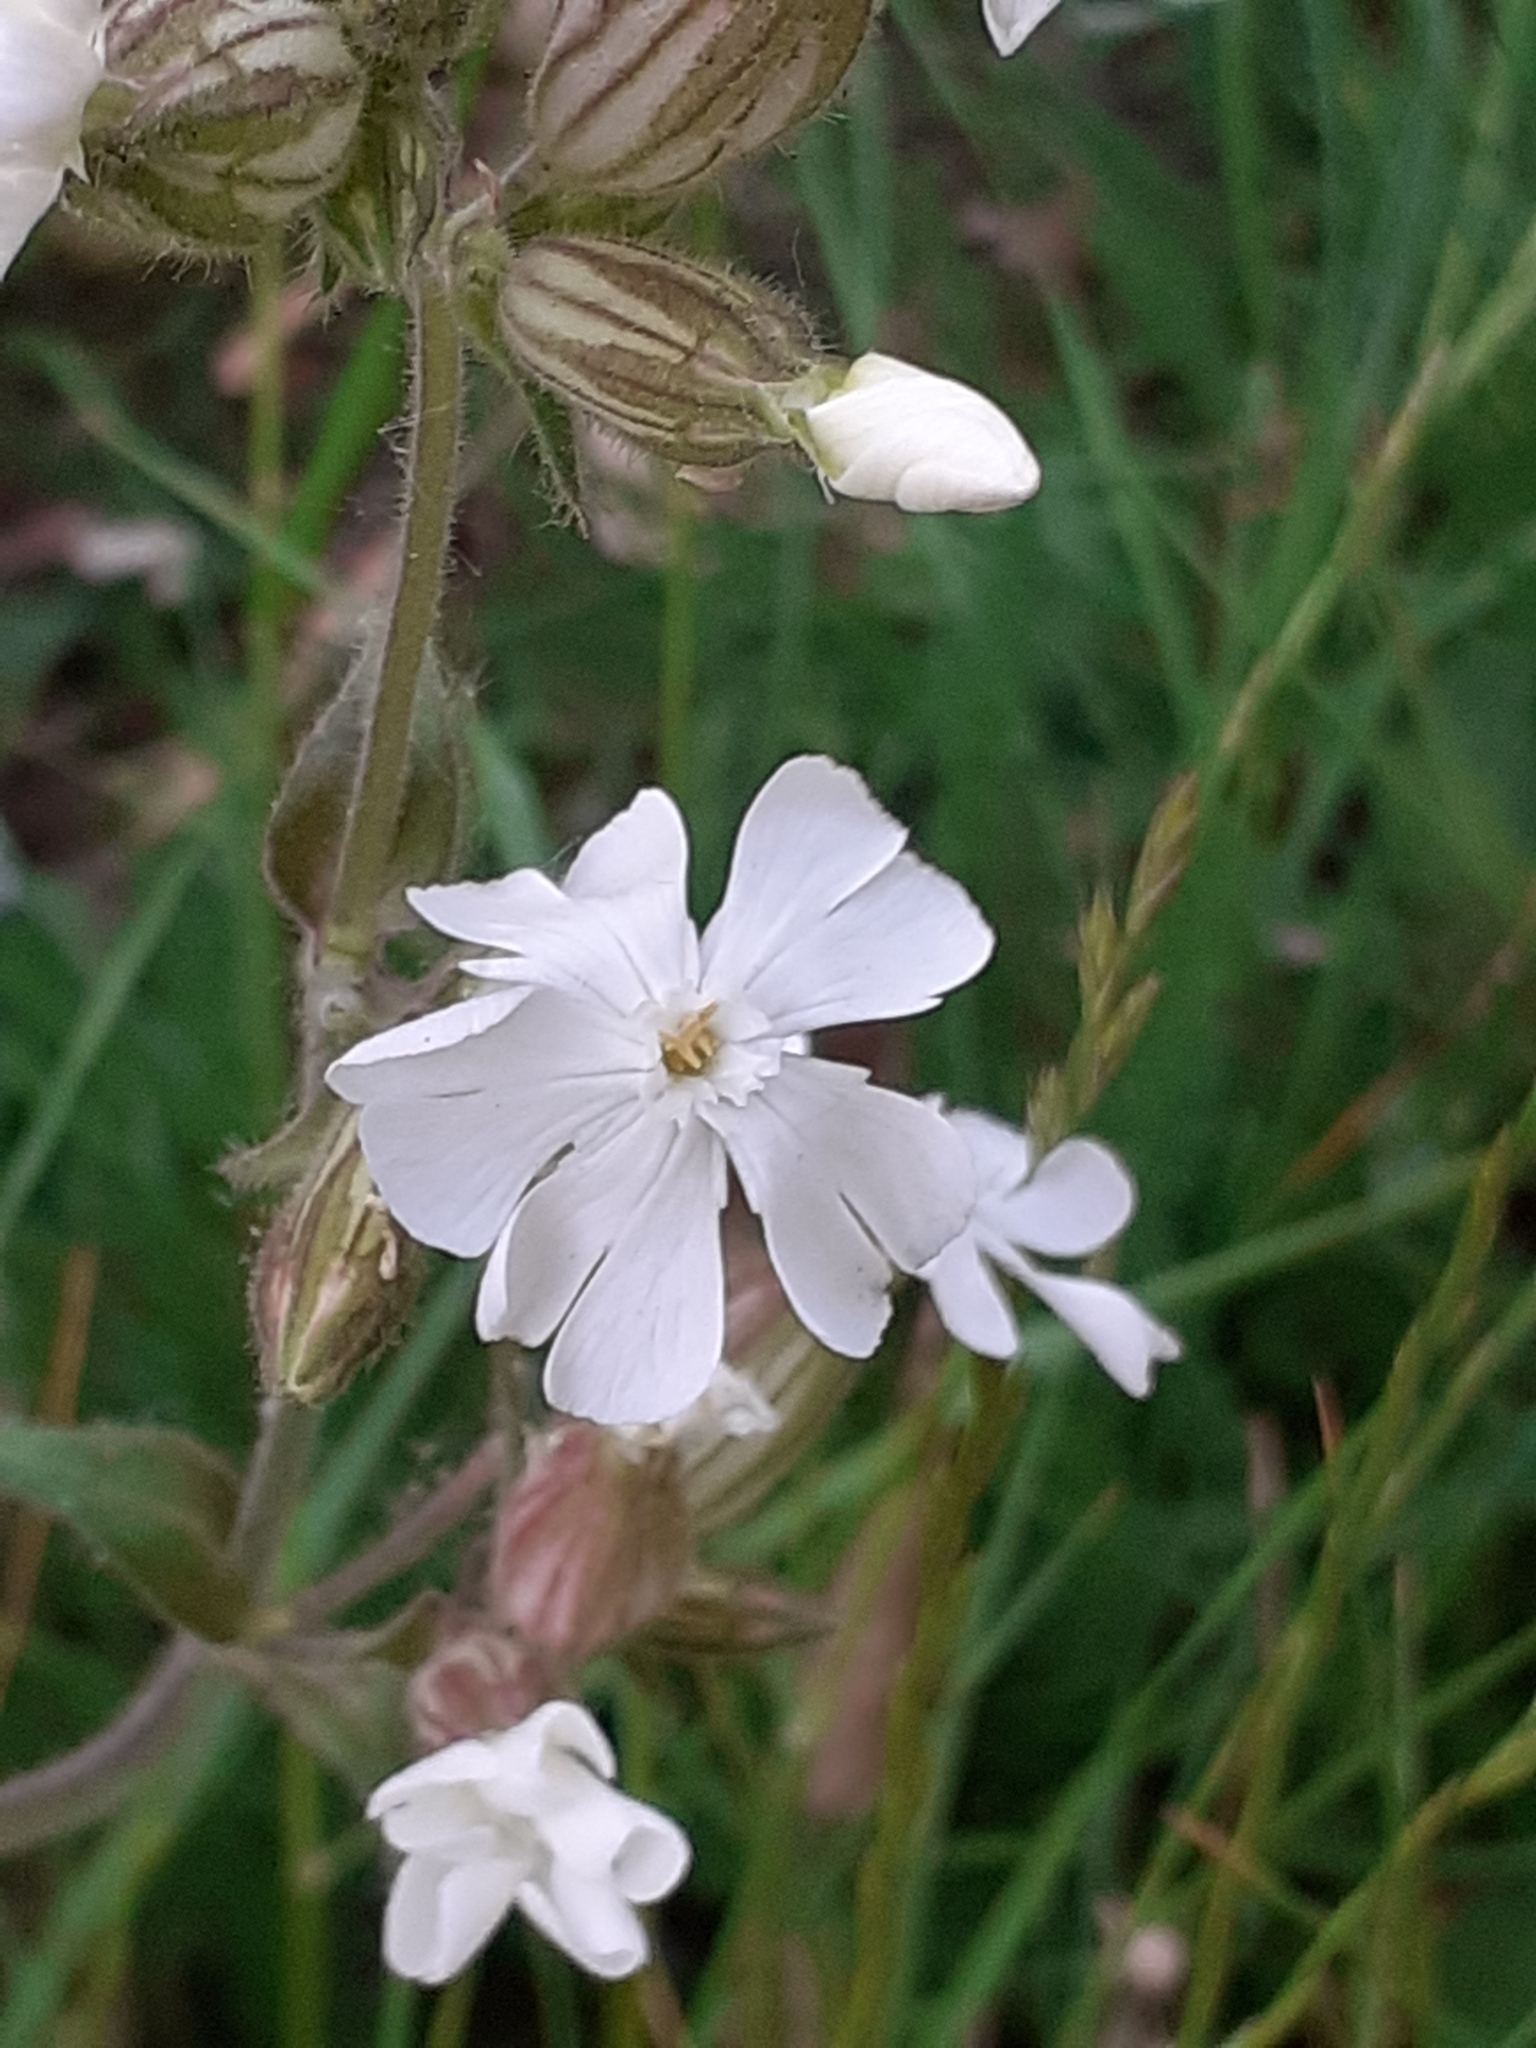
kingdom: Plantae
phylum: Tracheophyta
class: Magnoliopsida
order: Caryophyllales
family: Caryophyllaceae
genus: Silene
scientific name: Silene latifolia
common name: White campion
